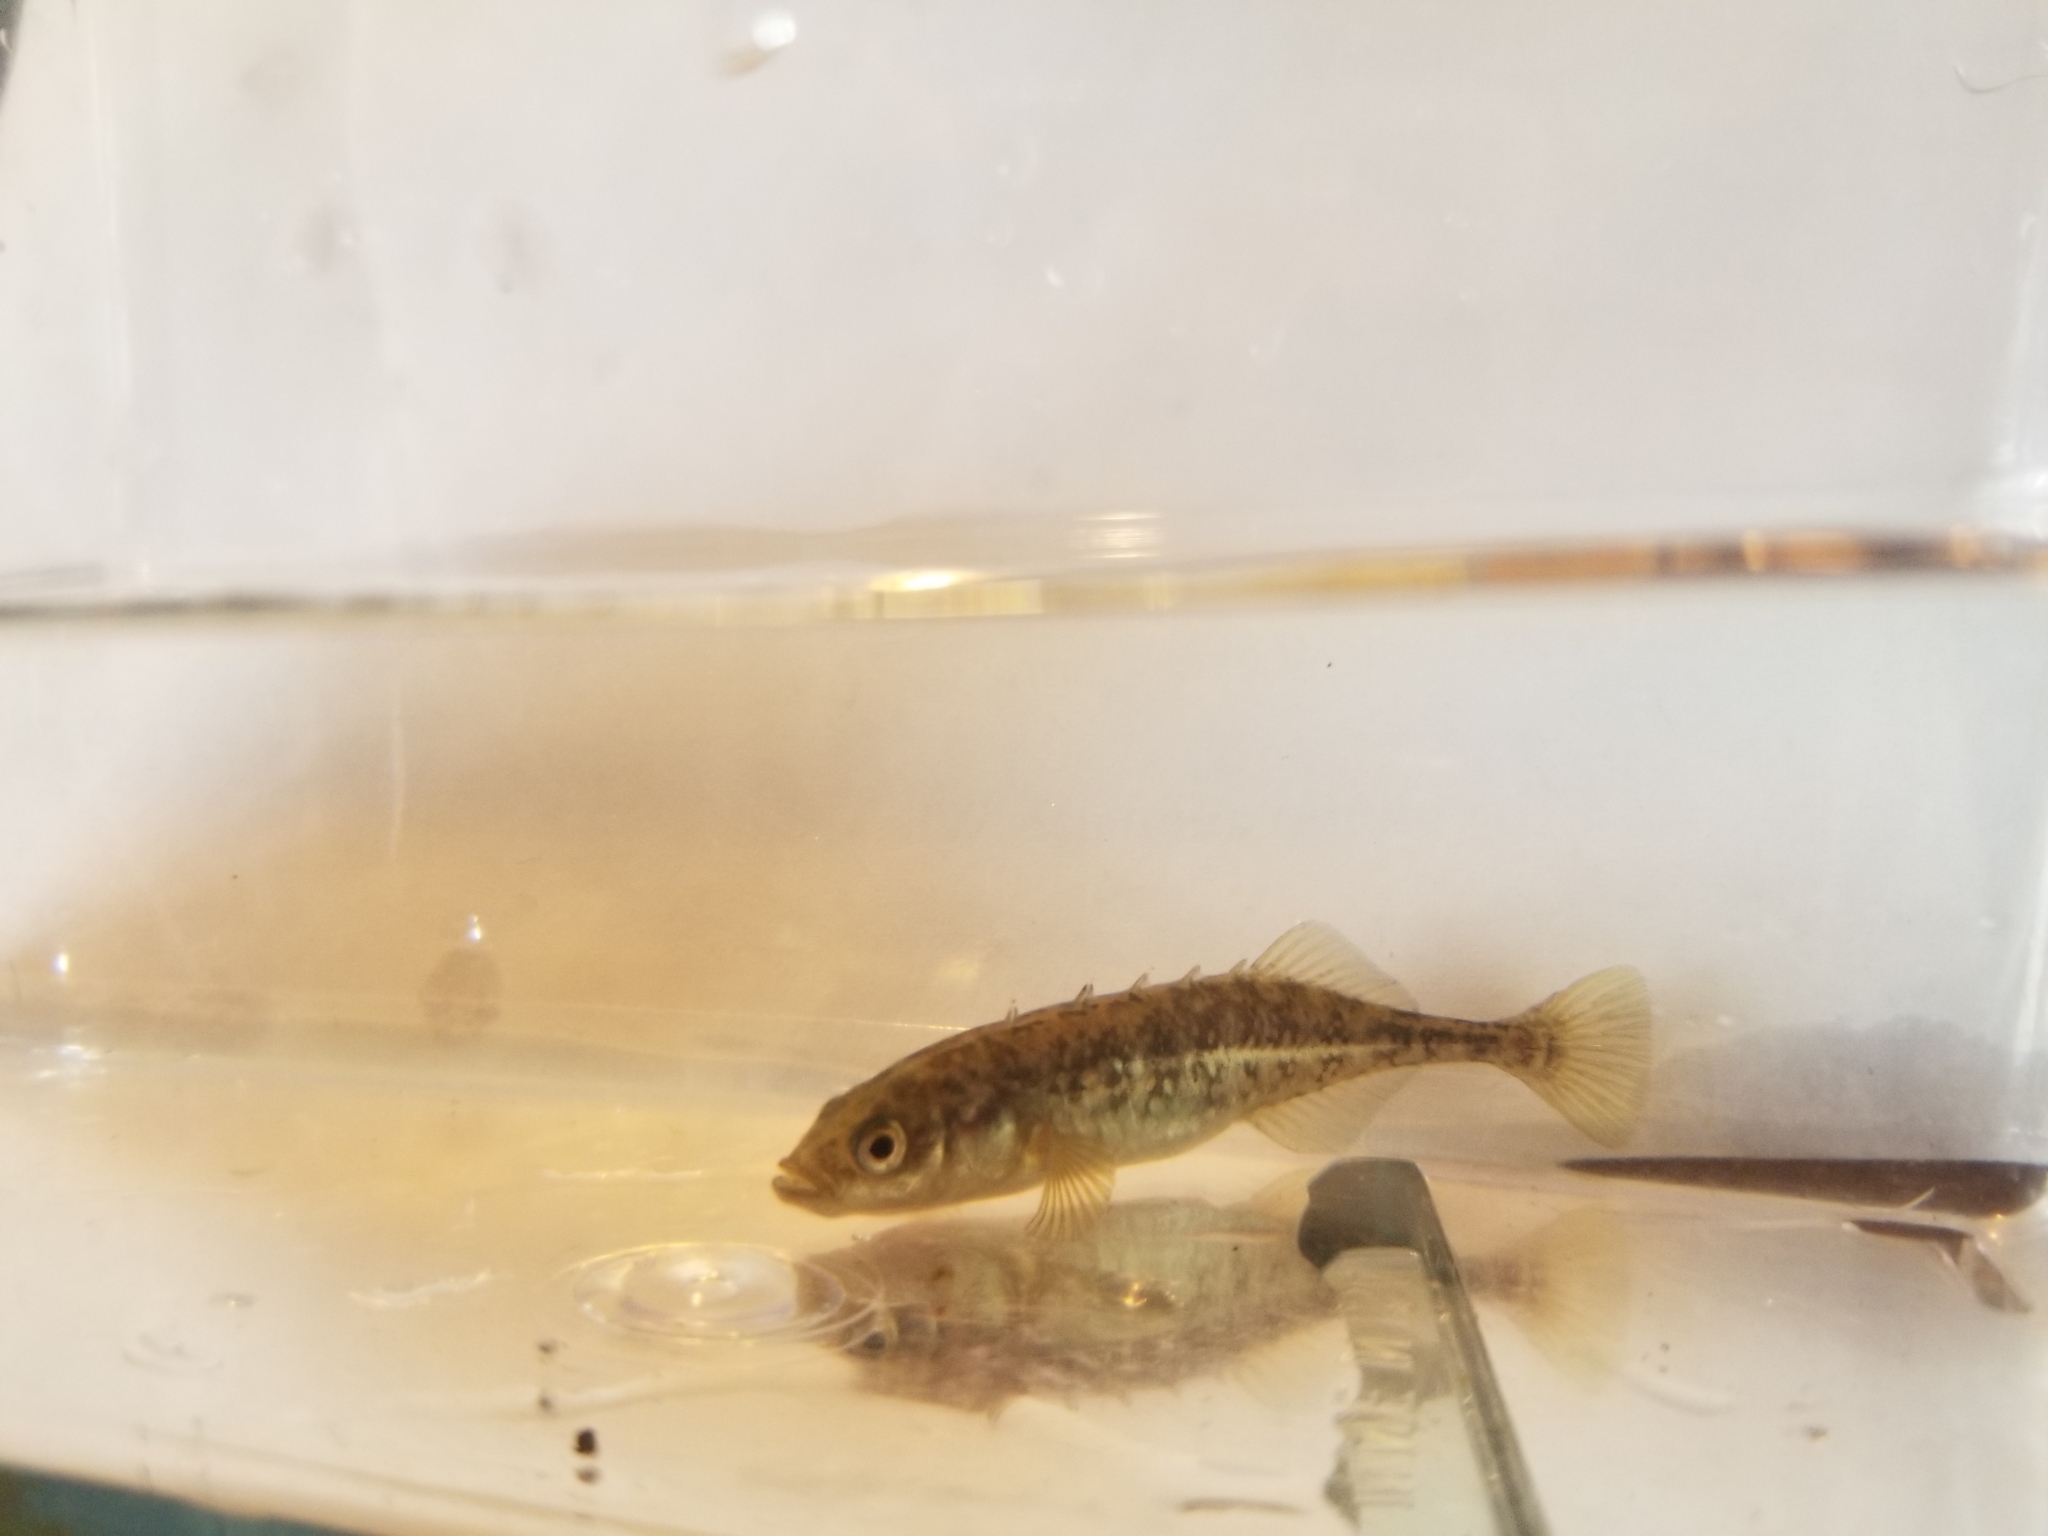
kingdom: Animalia
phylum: Chordata
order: Gasterosteiformes
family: Gasterosteidae
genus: Culaea
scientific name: Culaea inconstans
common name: Brook stickleback
